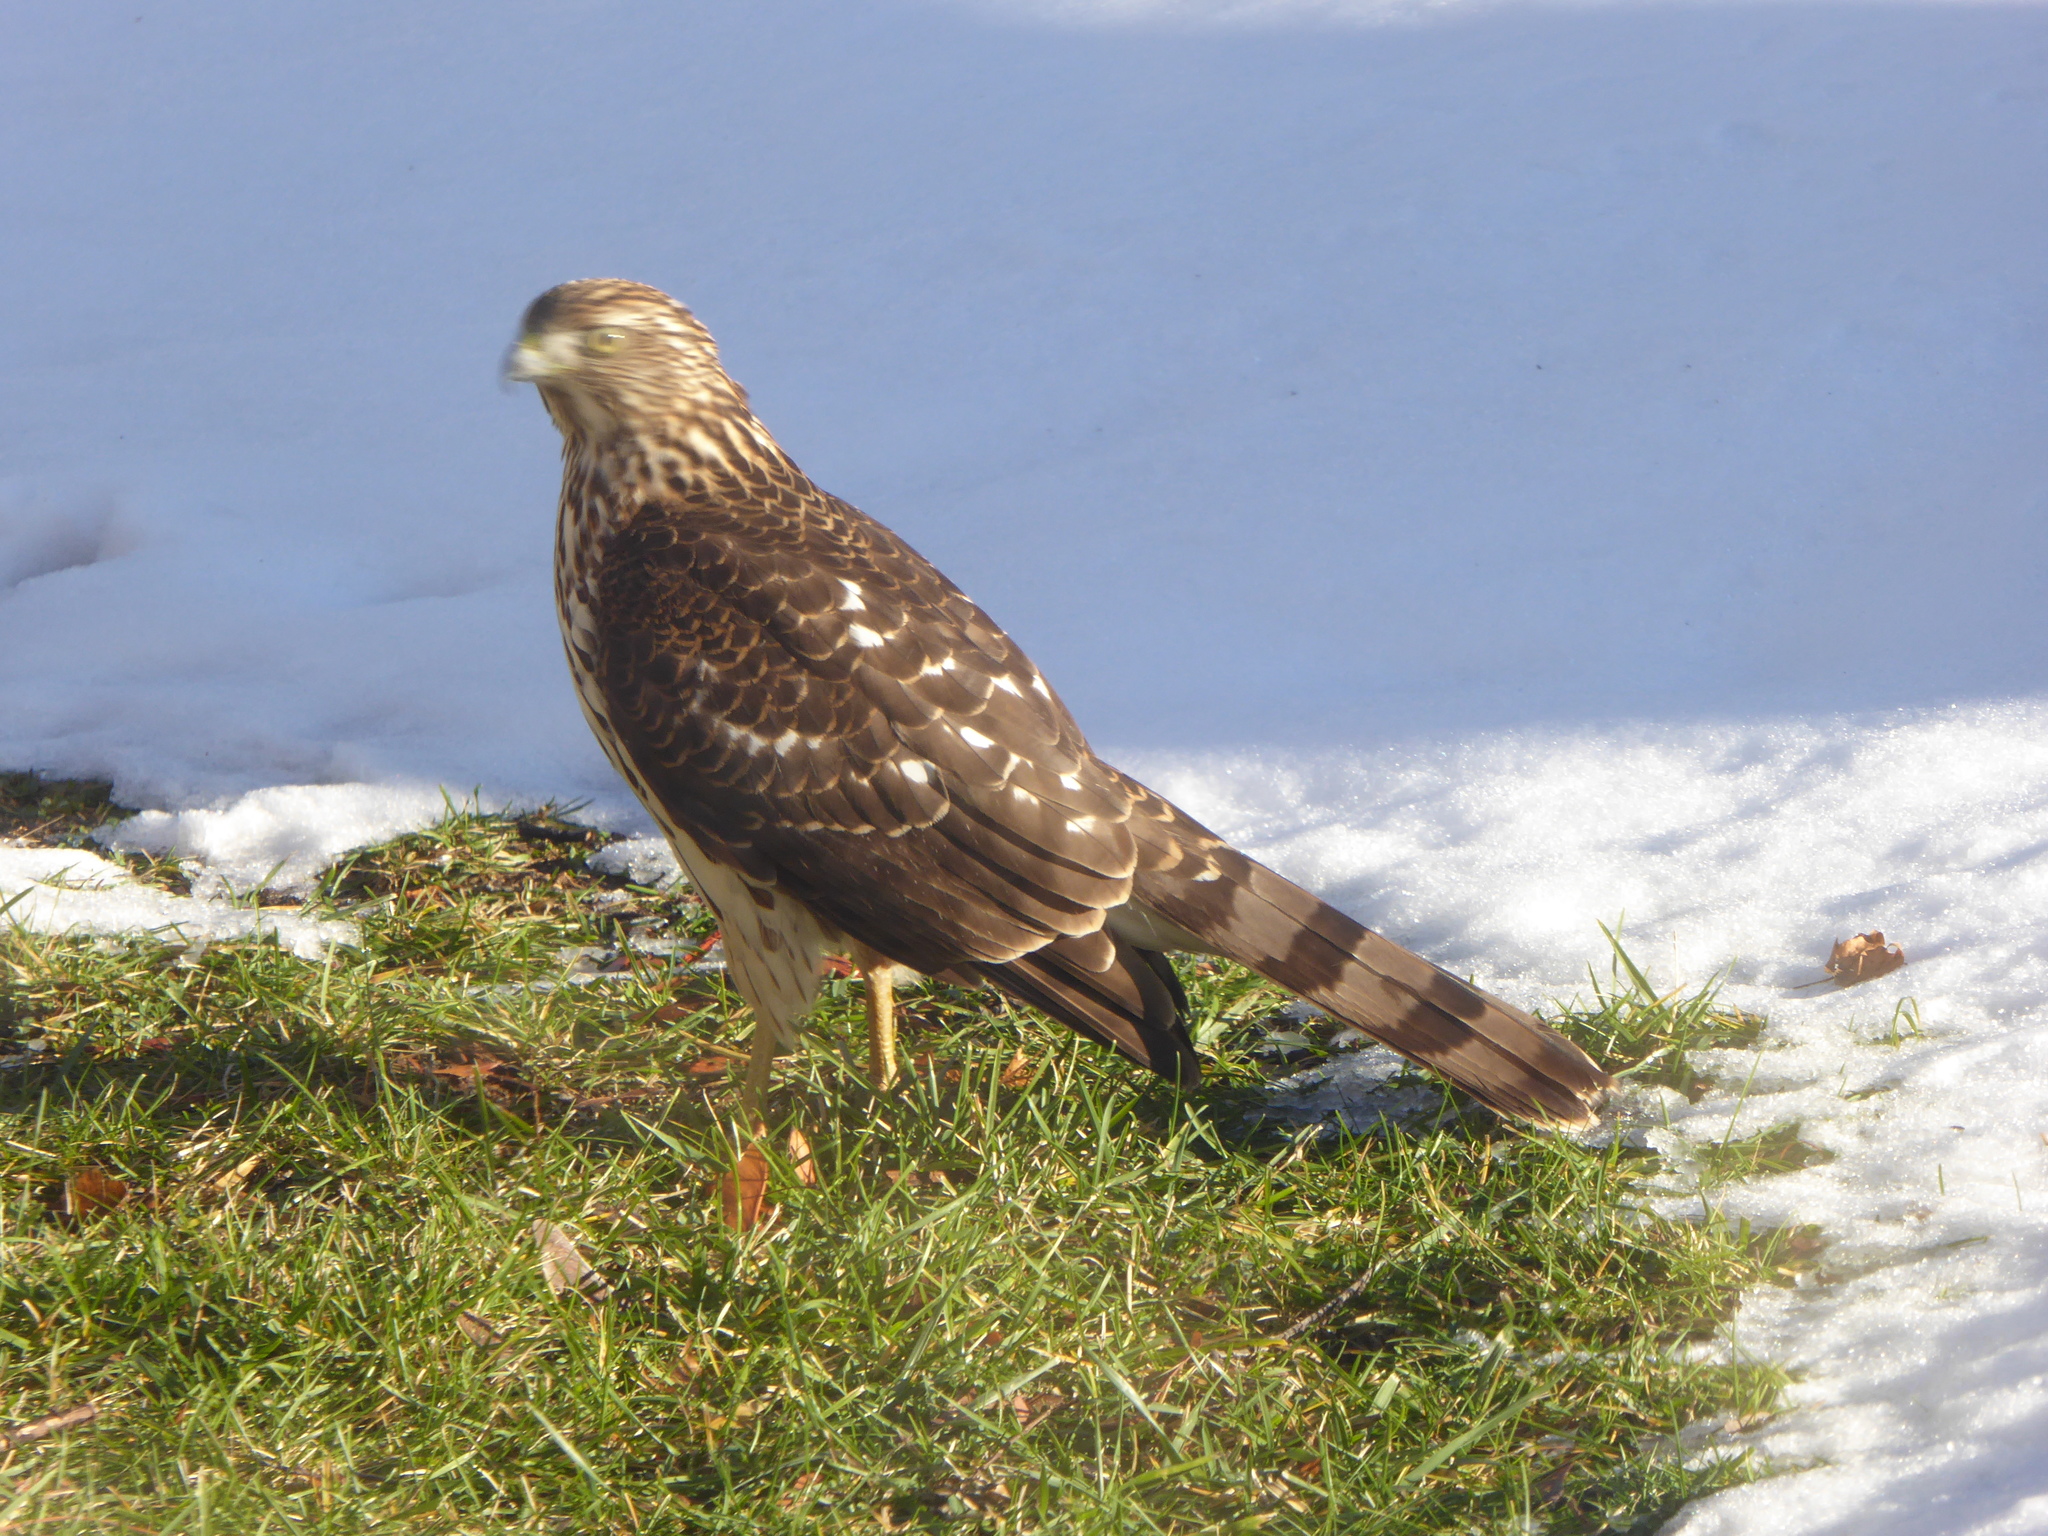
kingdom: Animalia
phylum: Chordata
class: Aves
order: Accipitriformes
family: Accipitridae
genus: Accipiter
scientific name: Accipiter cooperii
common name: Cooper's hawk
